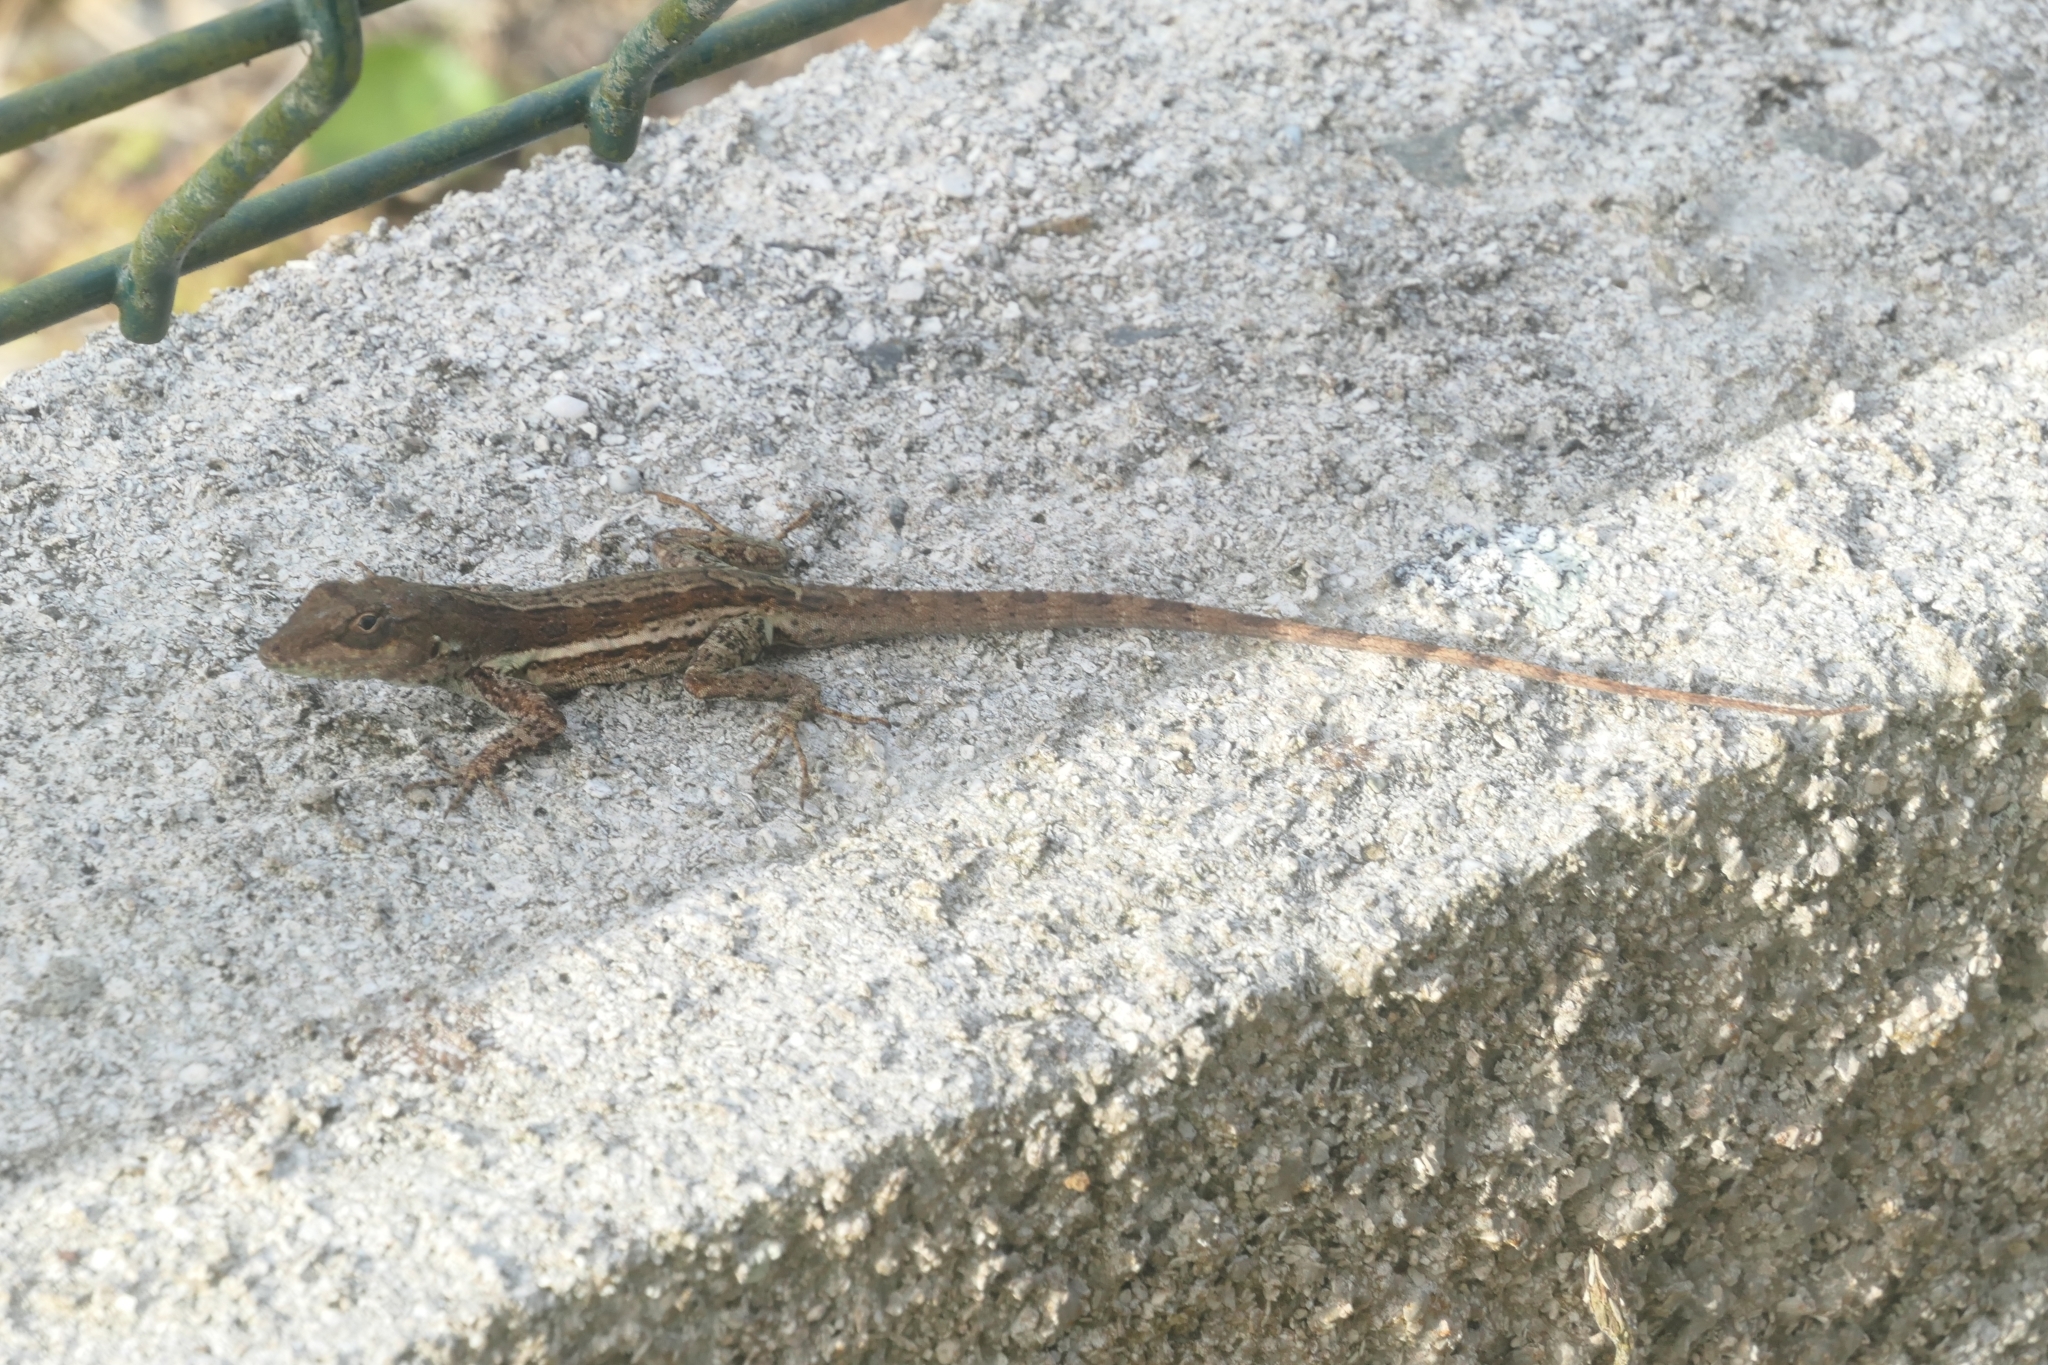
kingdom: Animalia
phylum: Chordata
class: Squamata
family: Dactyloidae
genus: Anolis
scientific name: Anolis gingivinus
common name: Anguilla anole
